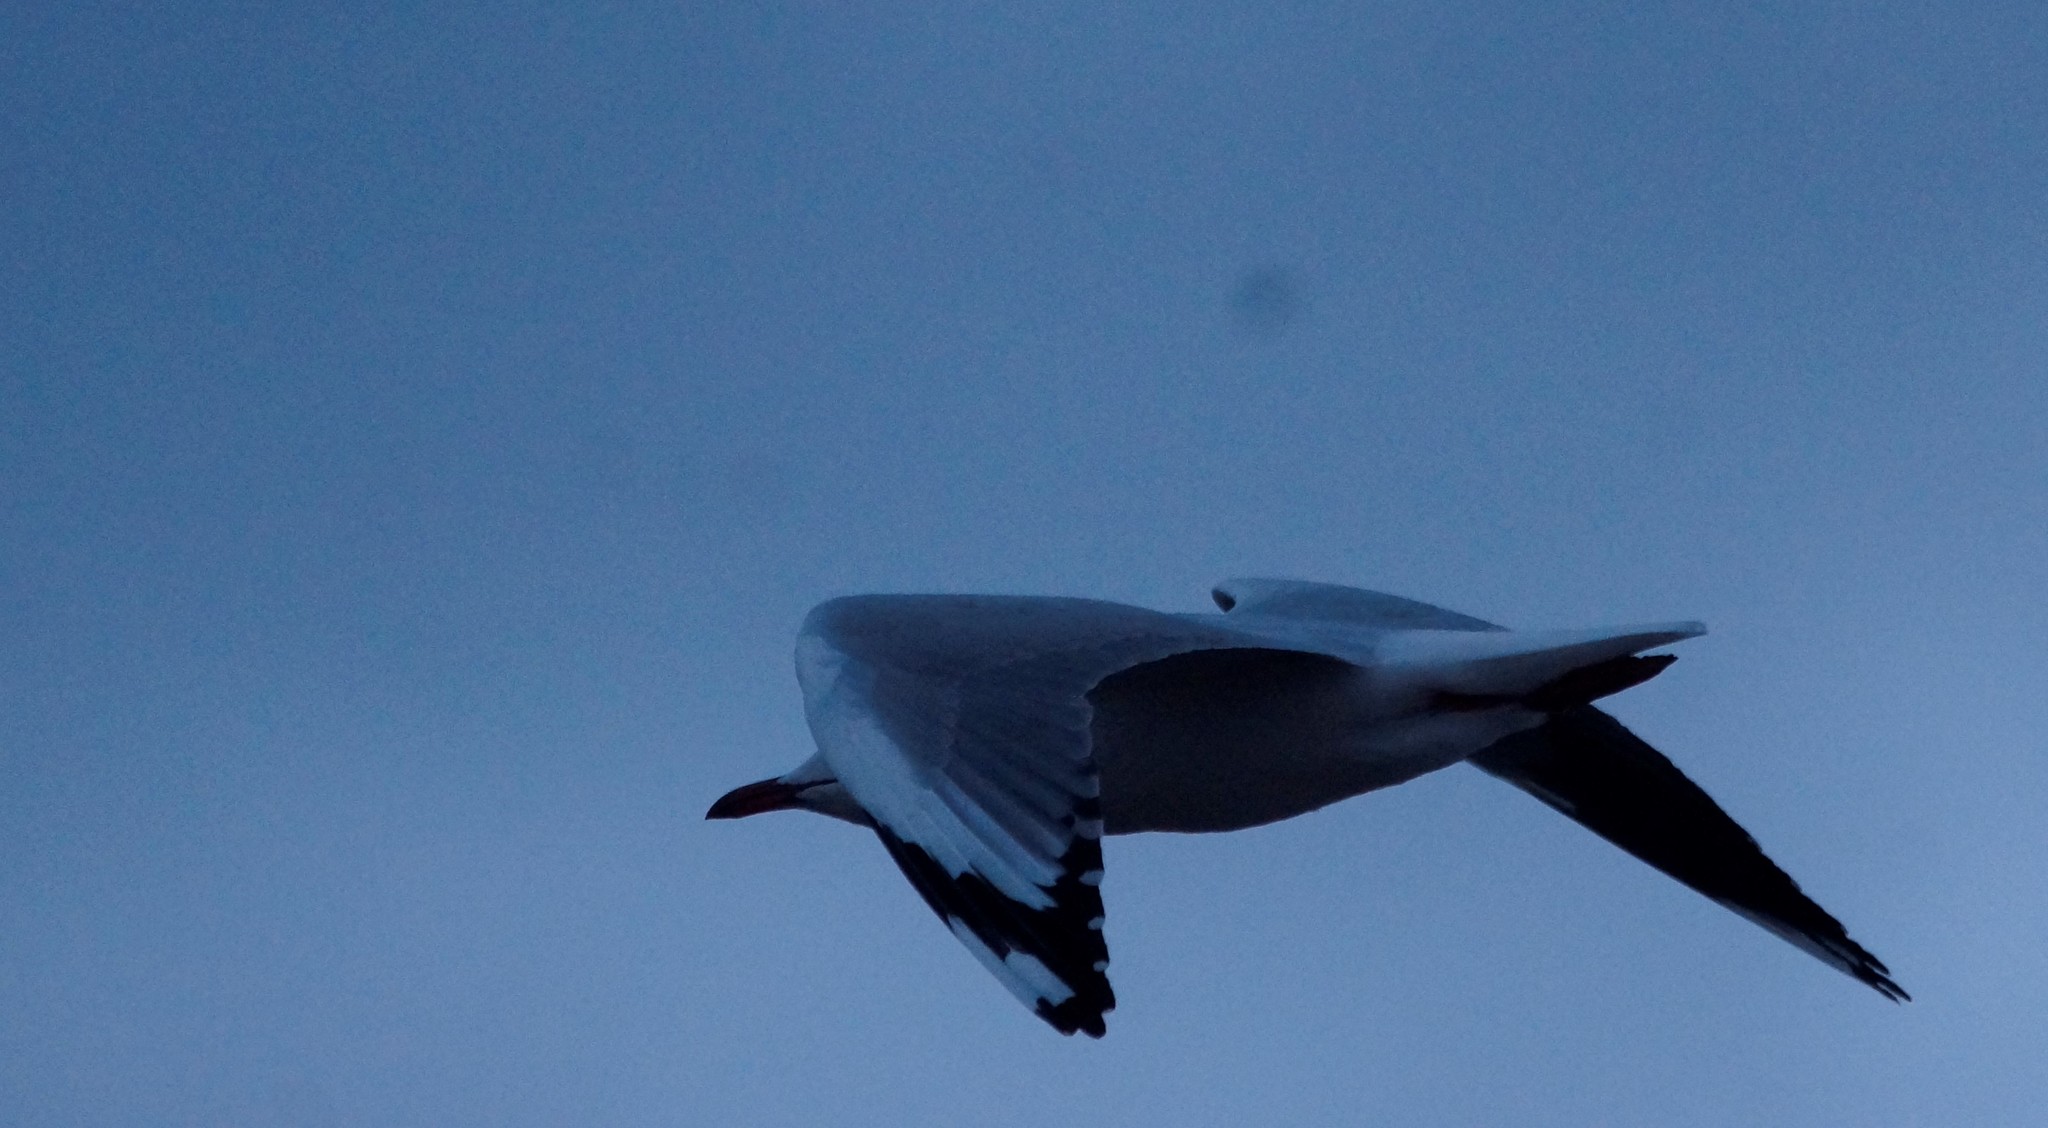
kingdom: Animalia
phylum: Chordata
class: Aves
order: Charadriiformes
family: Laridae
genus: Chroicocephalus
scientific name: Chroicocephalus novaehollandiae
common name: Silver gull
